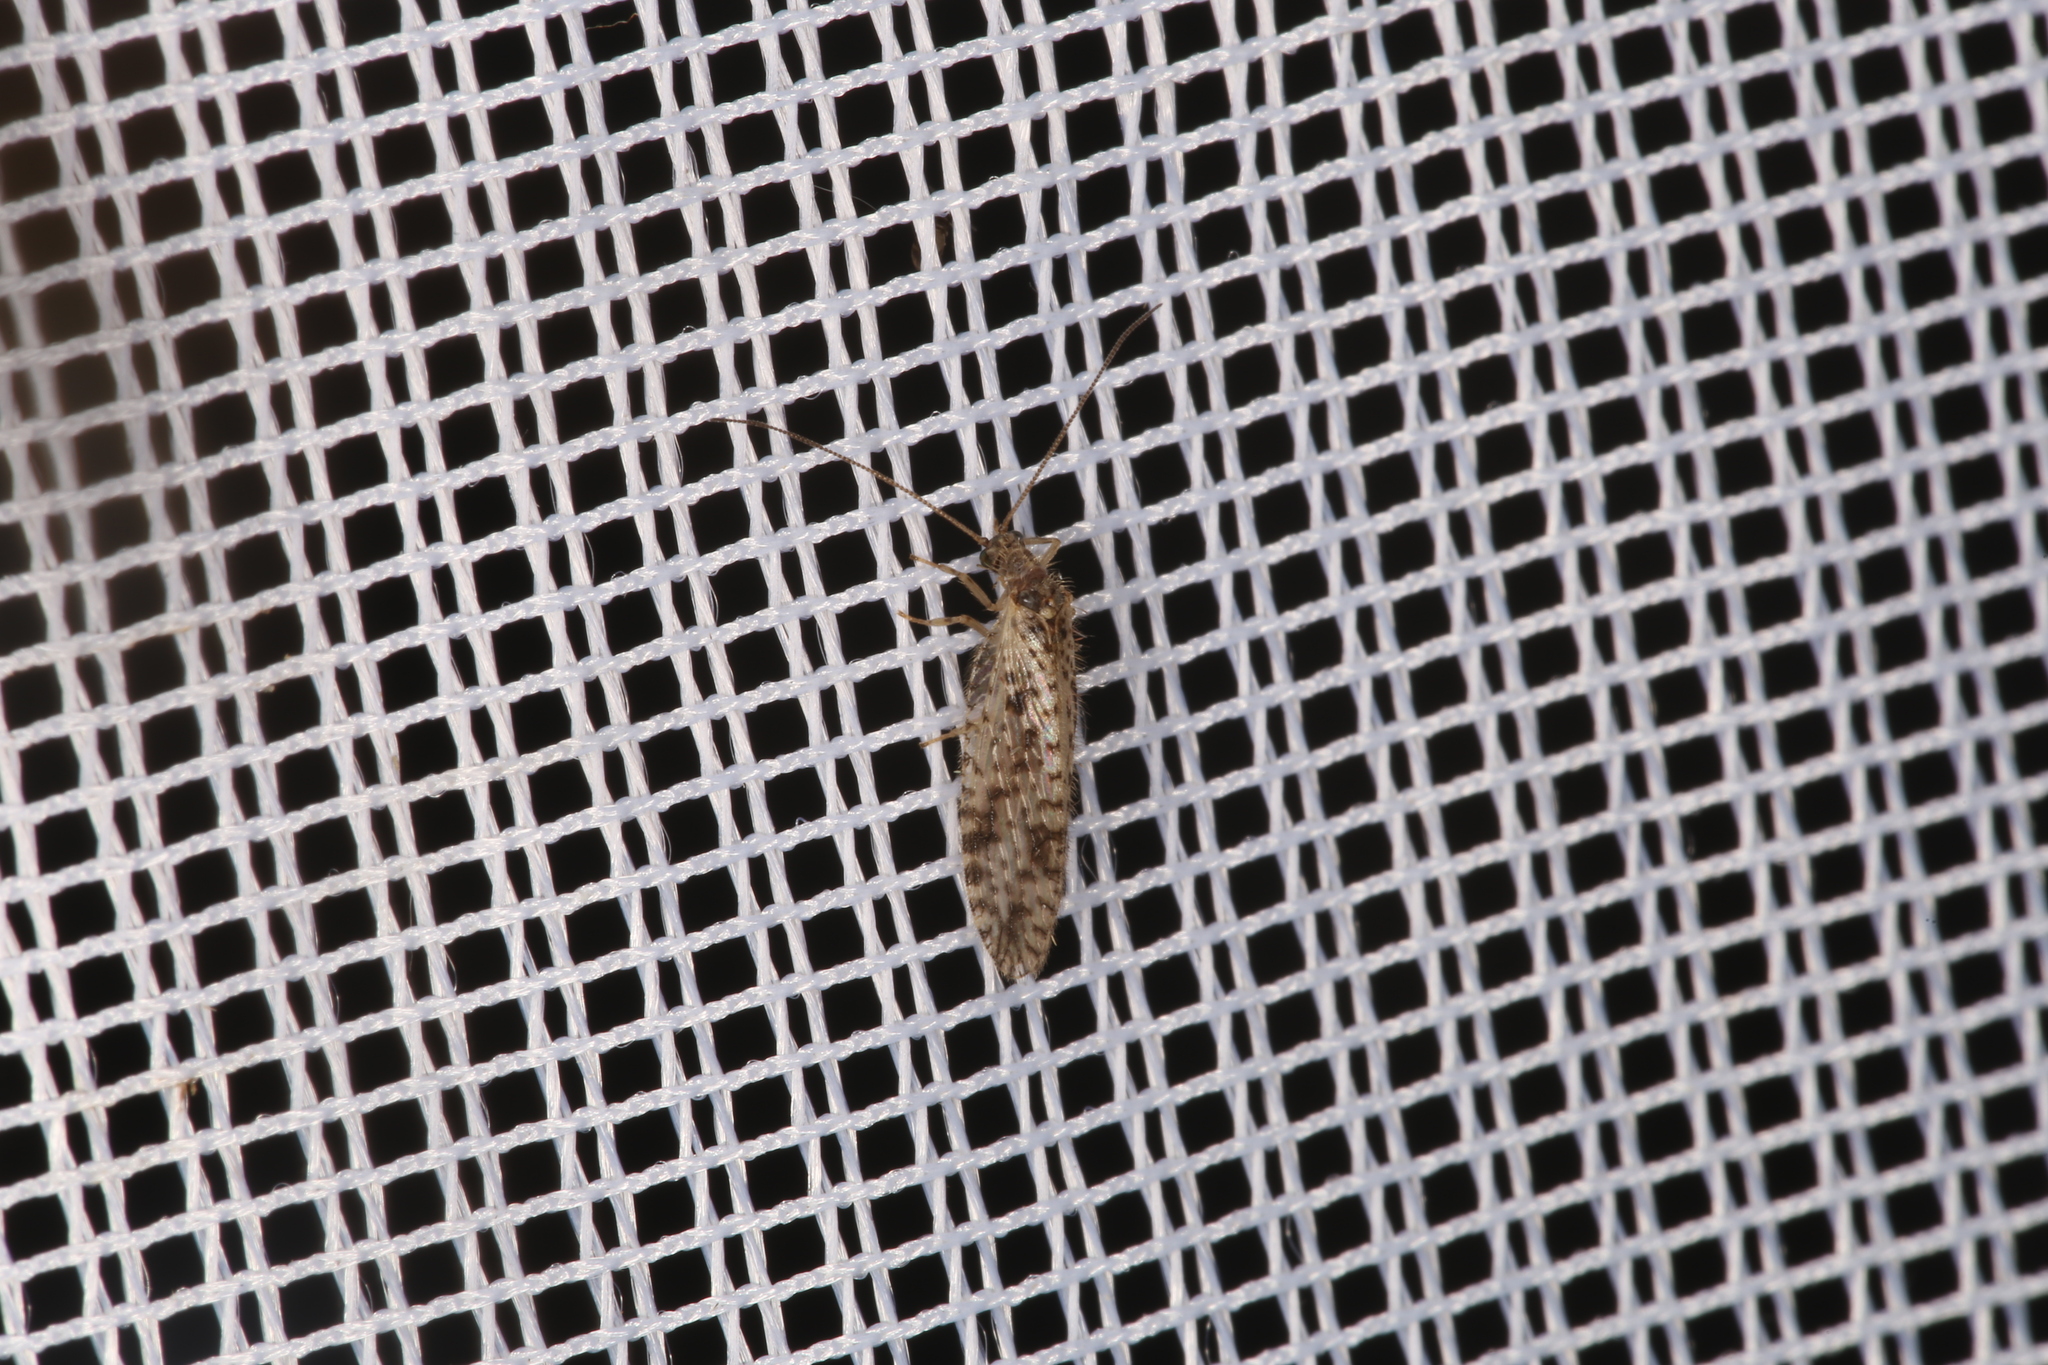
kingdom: Animalia
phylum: Arthropoda
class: Insecta
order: Neuroptera
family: Hemerobiidae
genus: Micromus
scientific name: Micromus variegatus
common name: Brown lacewing
